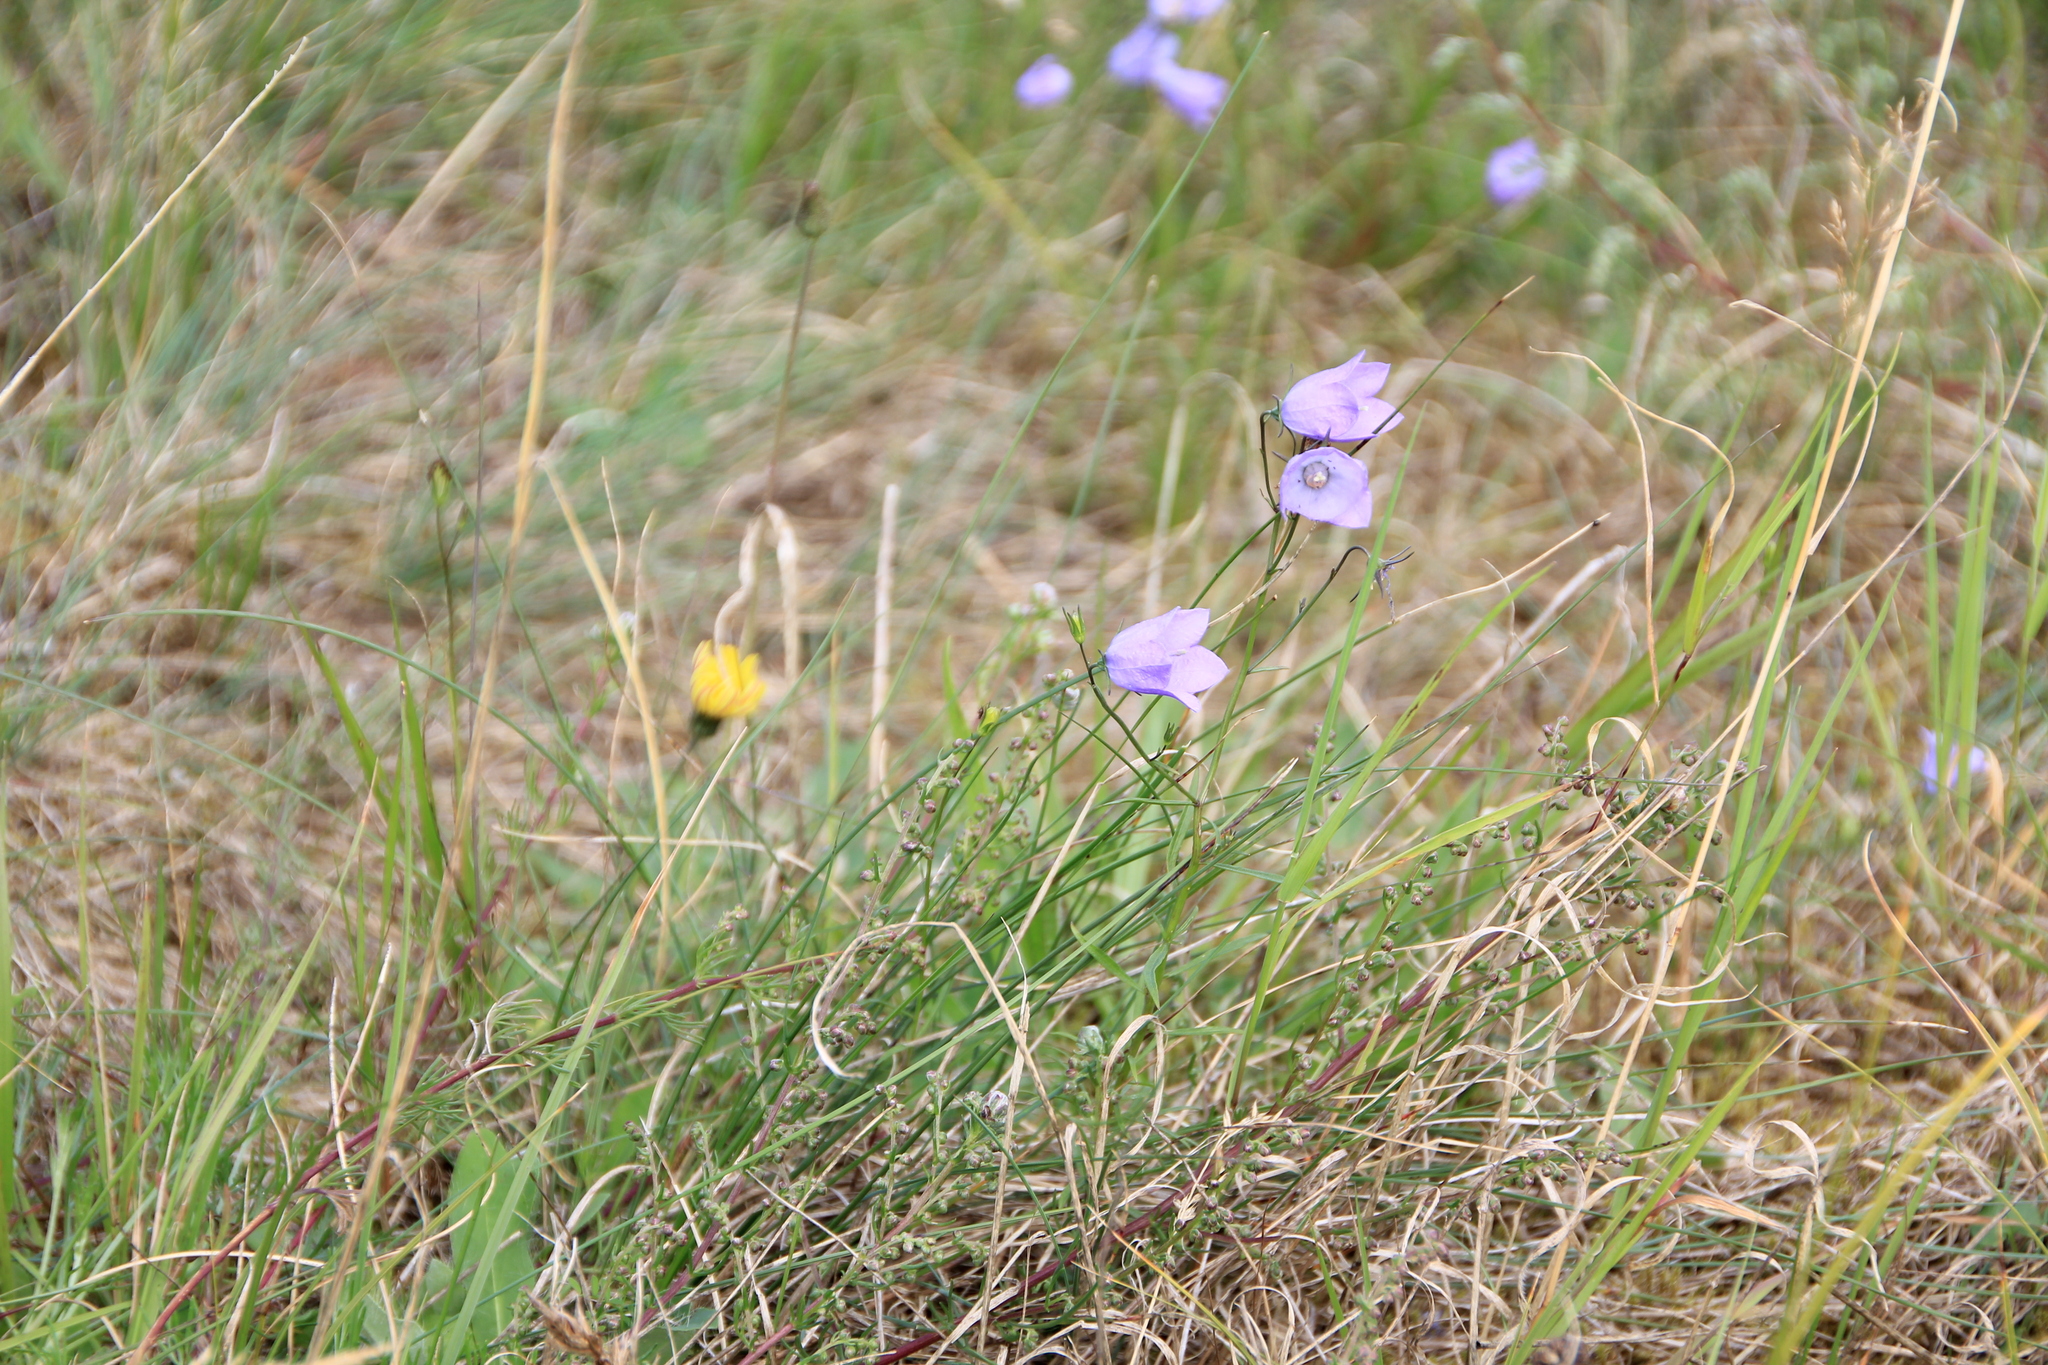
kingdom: Plantae
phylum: Tracheophyta
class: Magnoliopsida
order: Asterales
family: Campanulaceae
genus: Campanula
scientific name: Campanula rotundifolia
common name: Harebell
